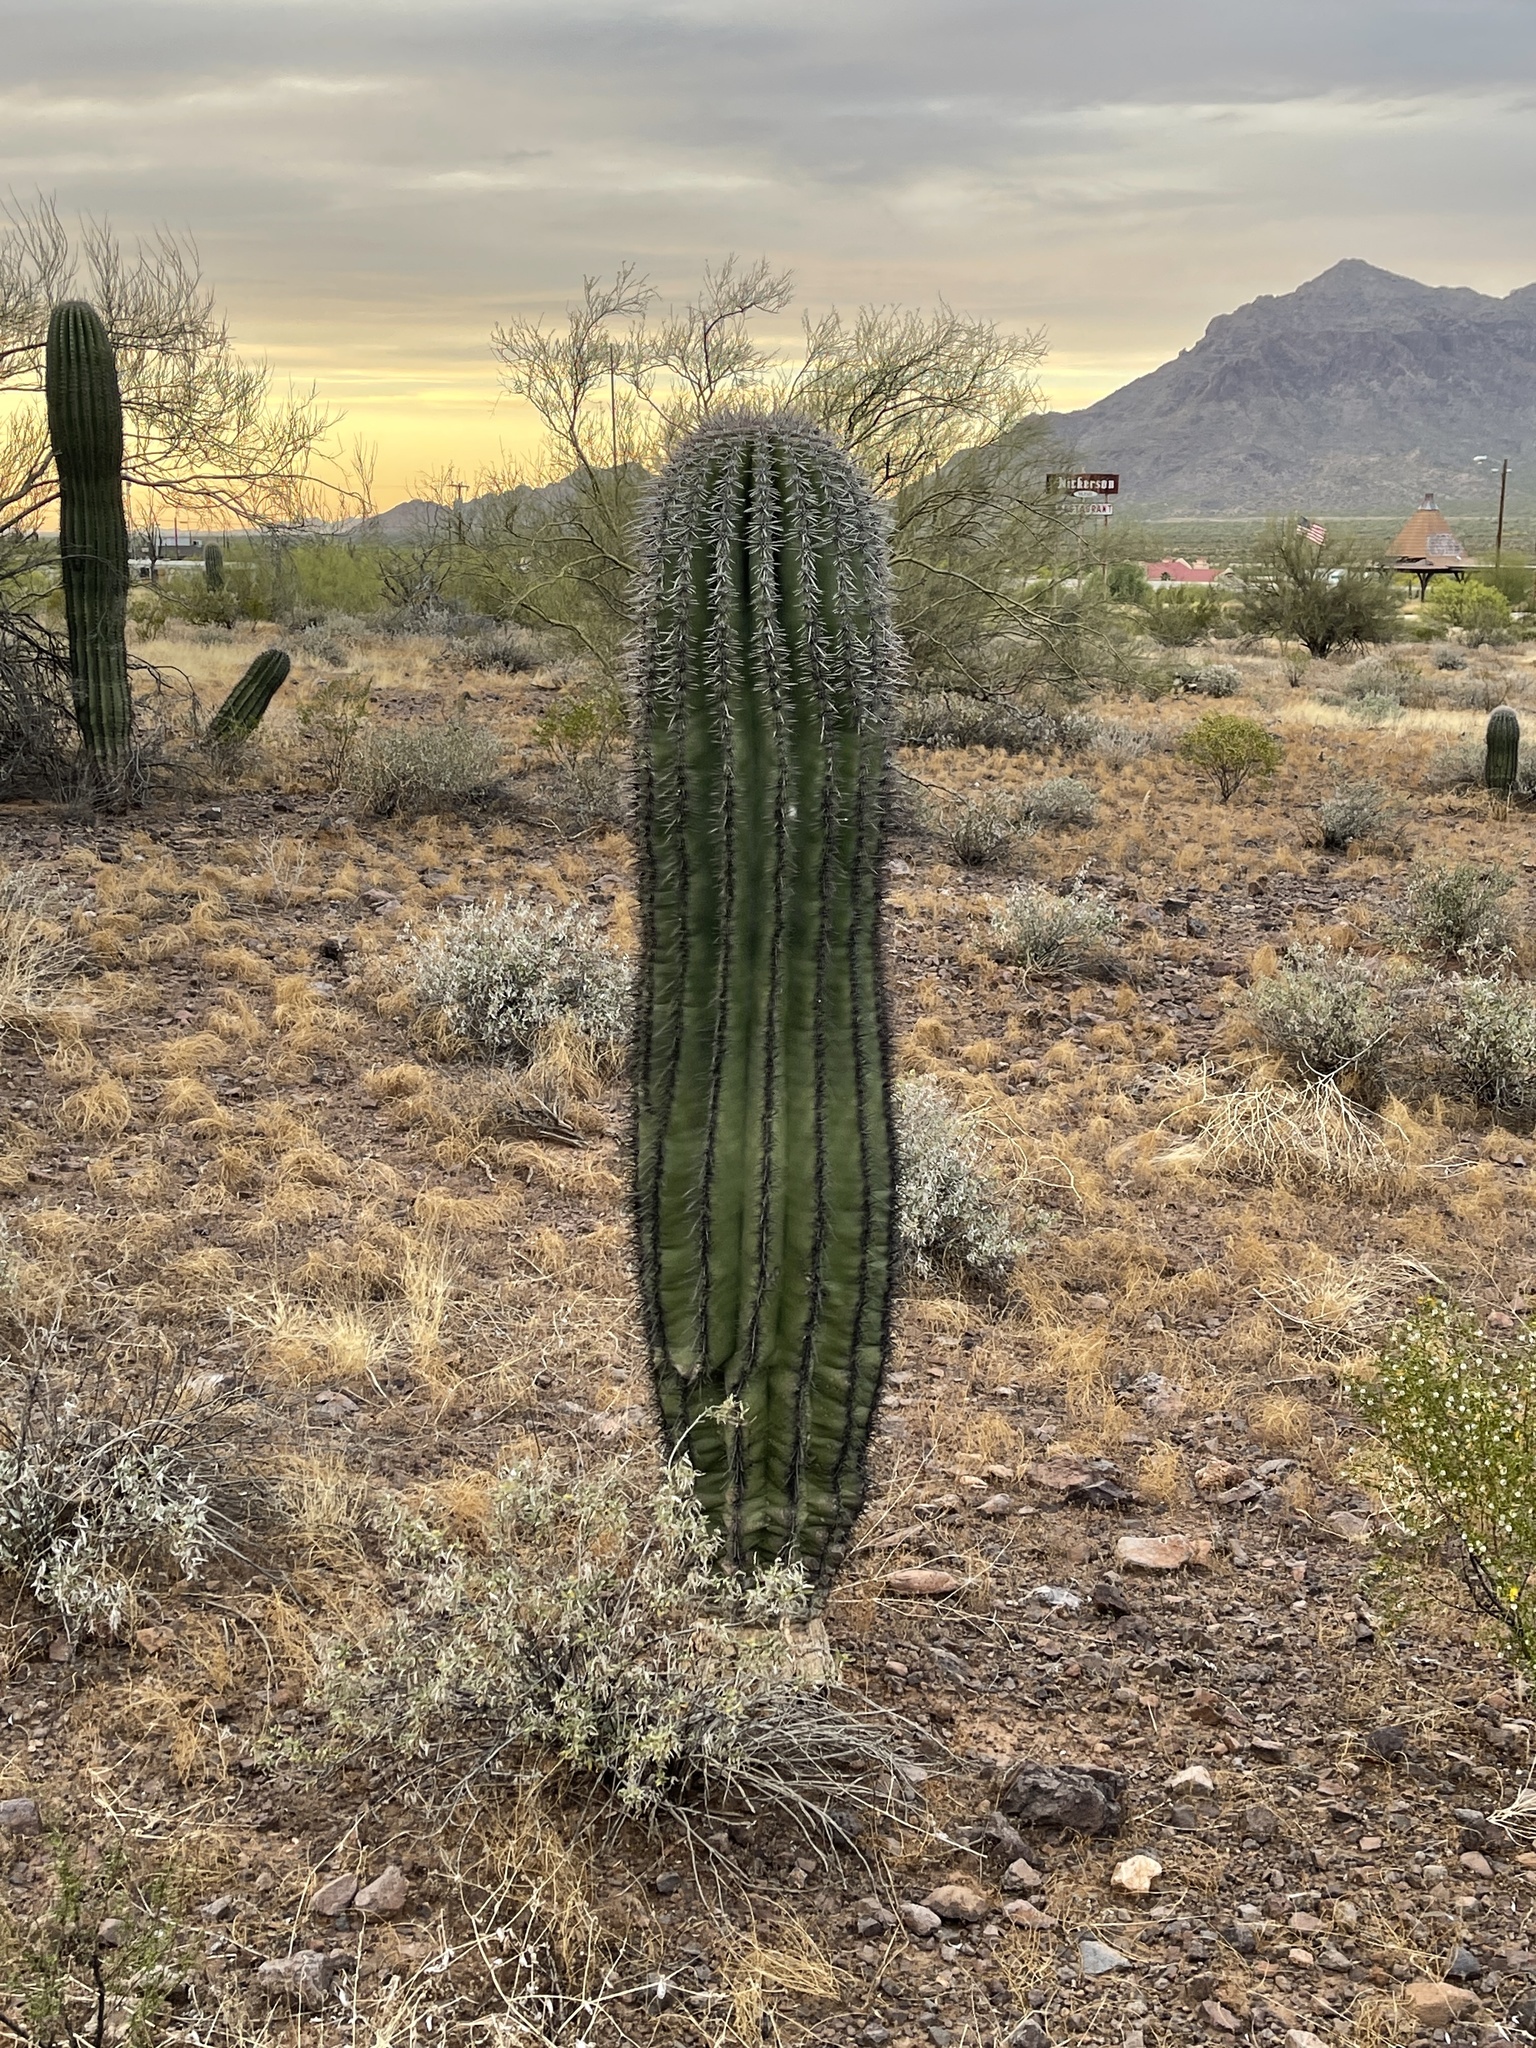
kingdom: Plantae
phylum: Tracheophyta
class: Magnoliopsida
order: Caryophyllales
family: Cactaceae
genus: Carnegiea
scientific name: Carnegiea gigantea
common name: Saguaro
